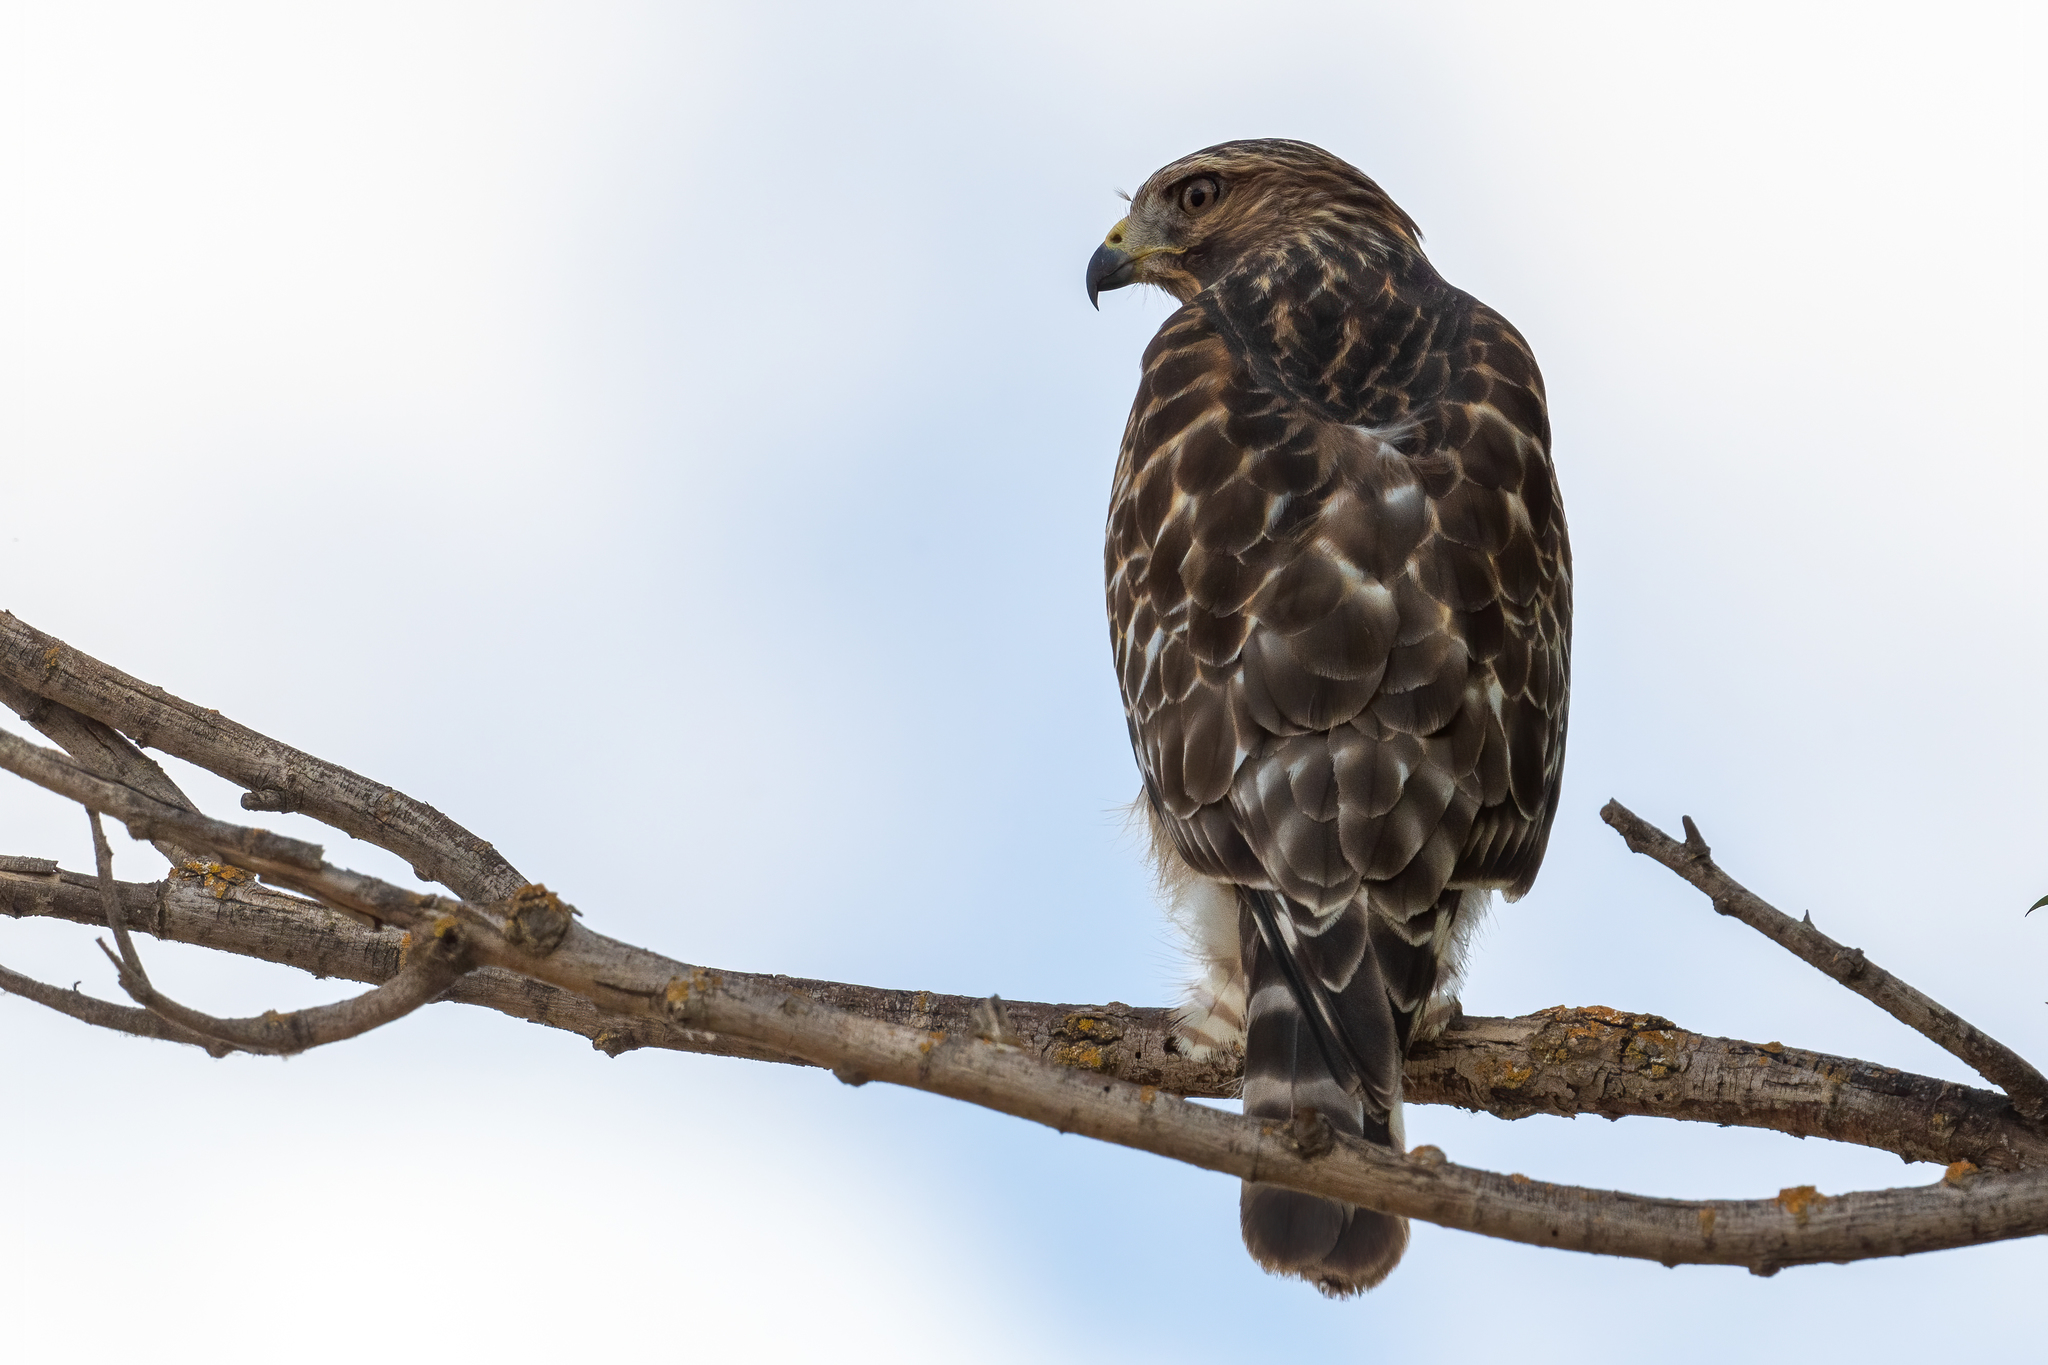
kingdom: Animalia
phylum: Chordata
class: Aves
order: Accipitriformes
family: Accipitridae
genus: Buteo
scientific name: Buteo lineatus
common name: Red-shouldered hawk
